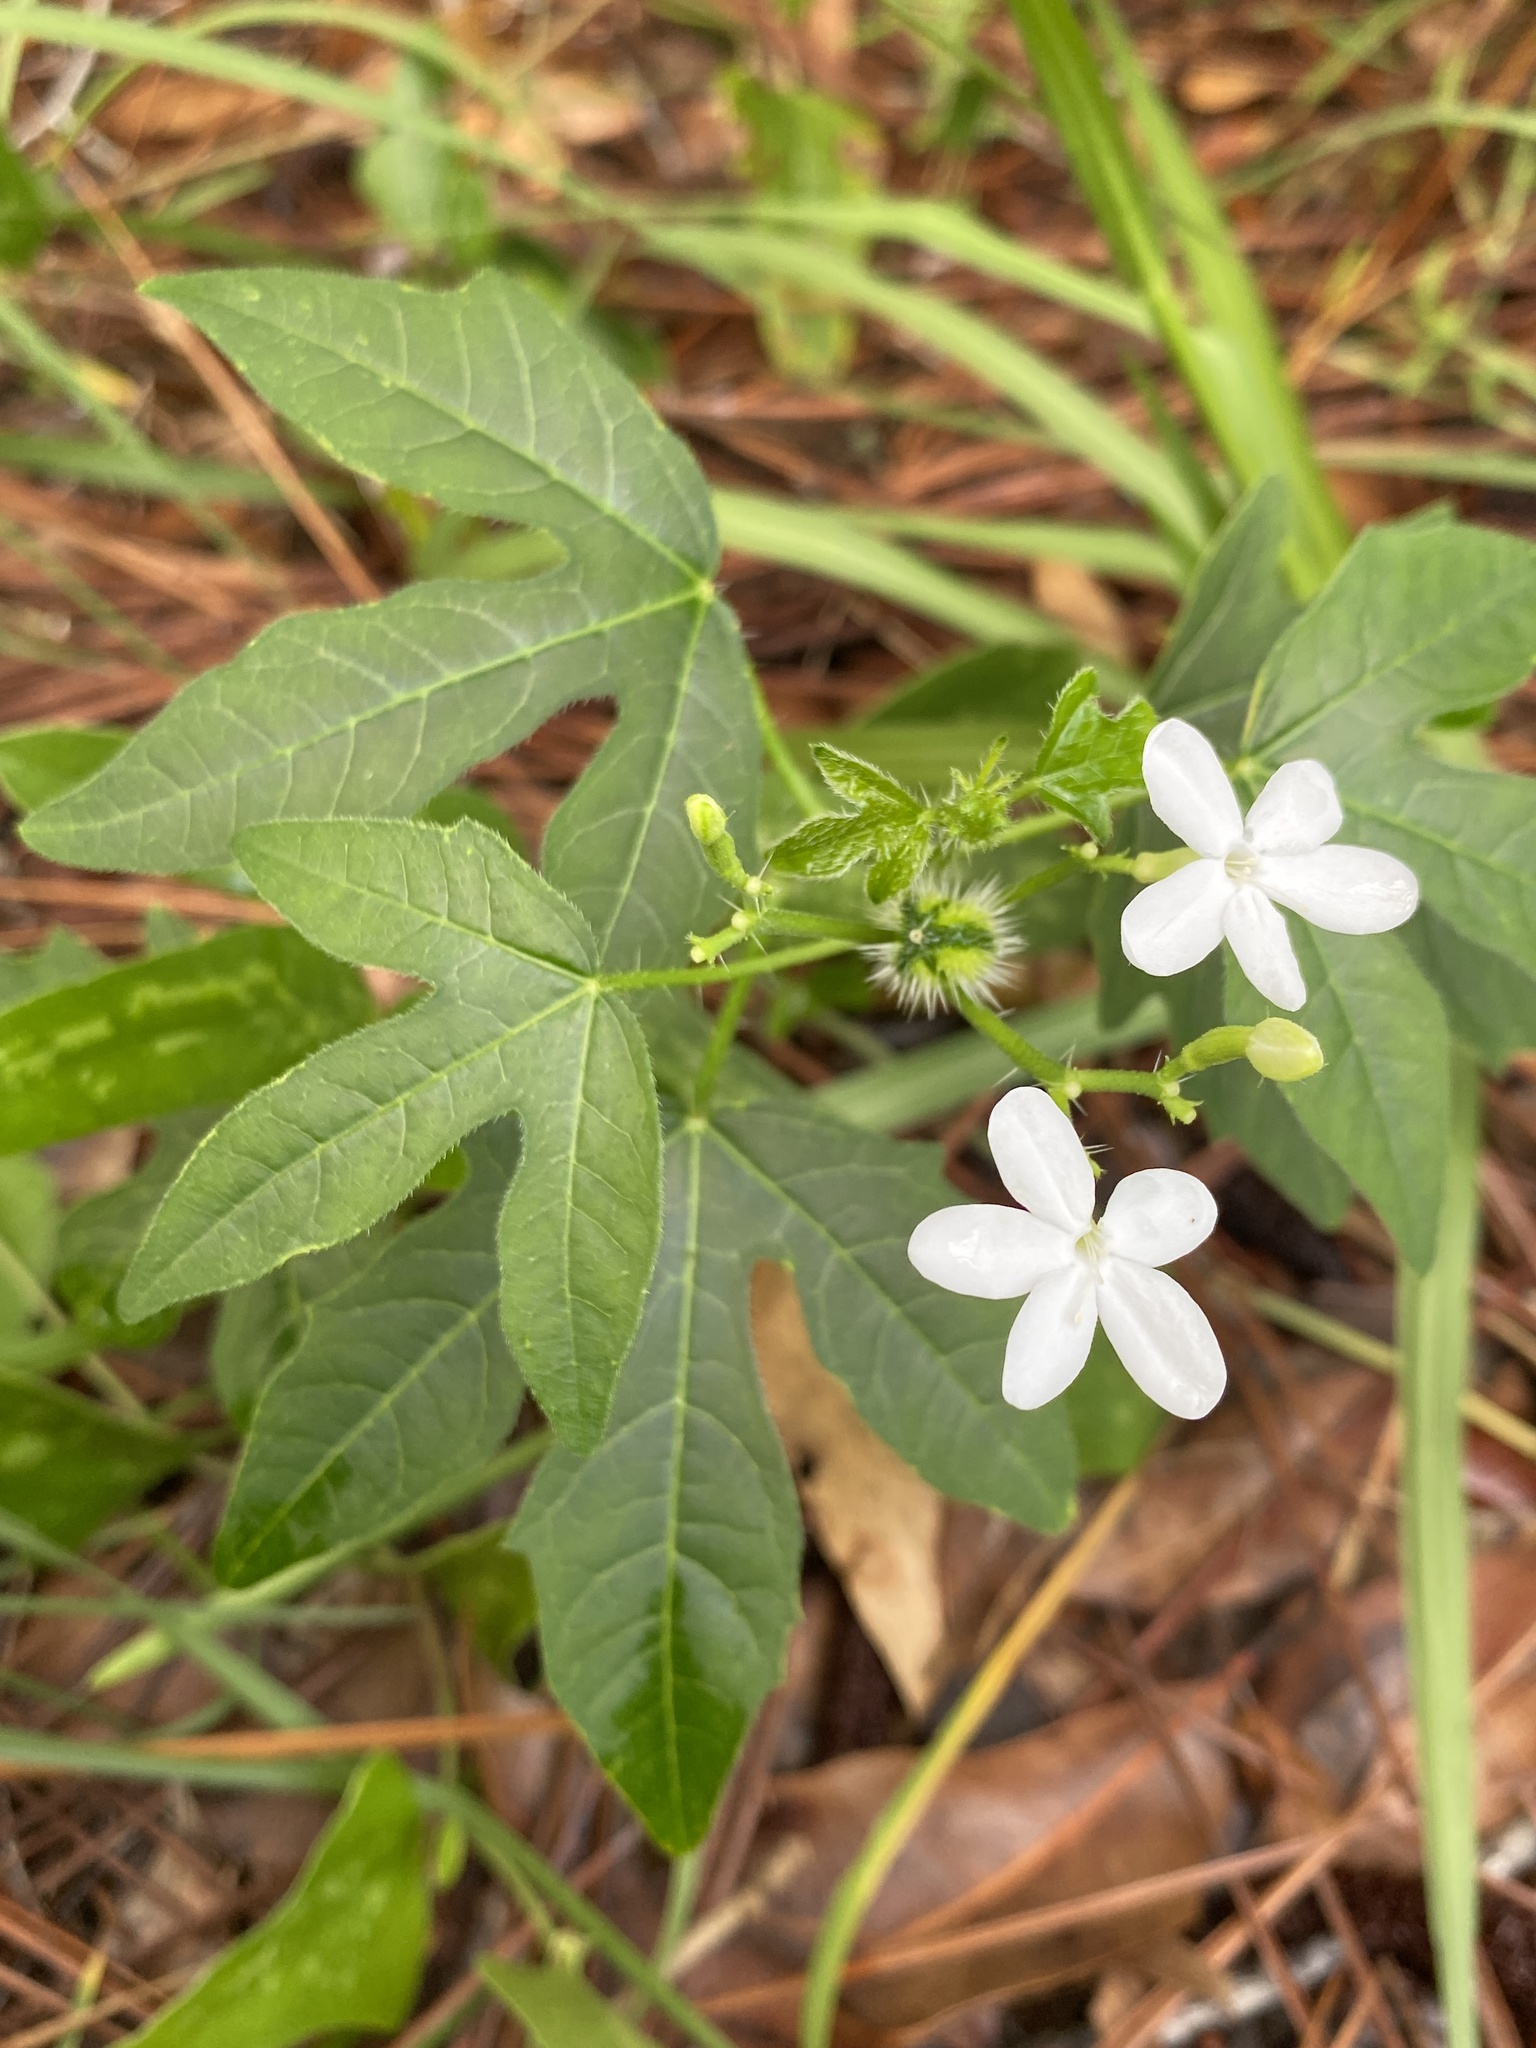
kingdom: Plantae
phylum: Tracheophyta
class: Magnoliopsida
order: Malpighiales
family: Euphorbiaceae
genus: Cnidoscolus
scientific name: Cnidoscolus stimulosus
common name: Bull-nettle
